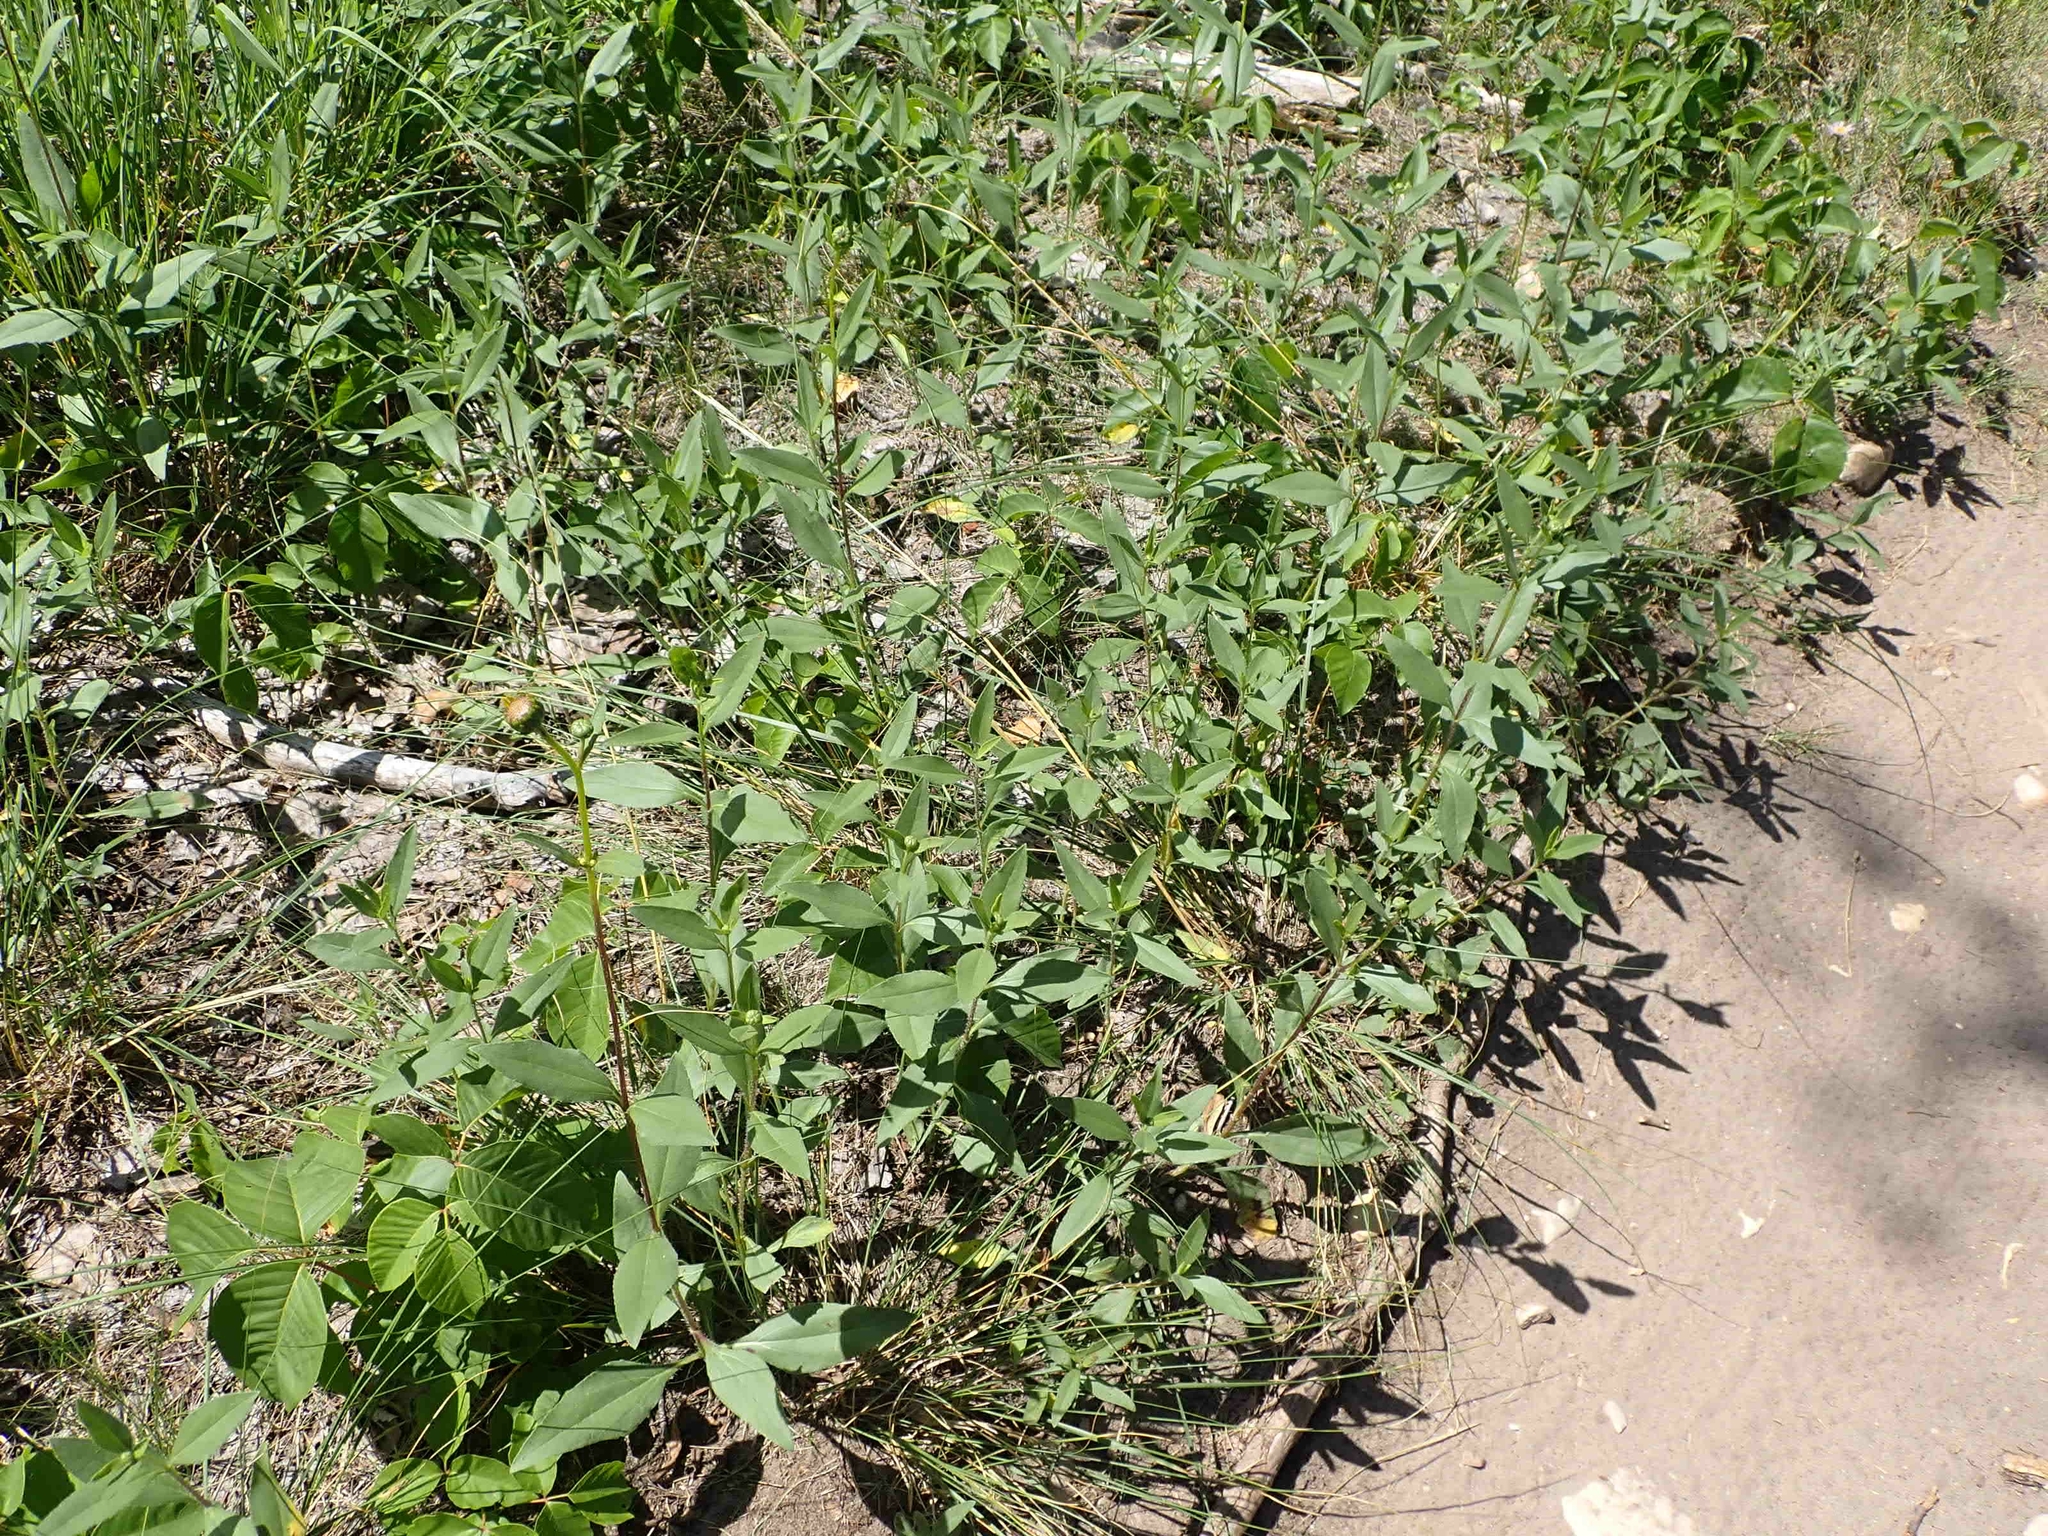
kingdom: Plantae
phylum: Tracheophyta
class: Magnoliopsida
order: Asterales
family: Asteraceae
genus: Helianthus
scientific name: Helianthus pauciflorus
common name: Stiff sunflower
